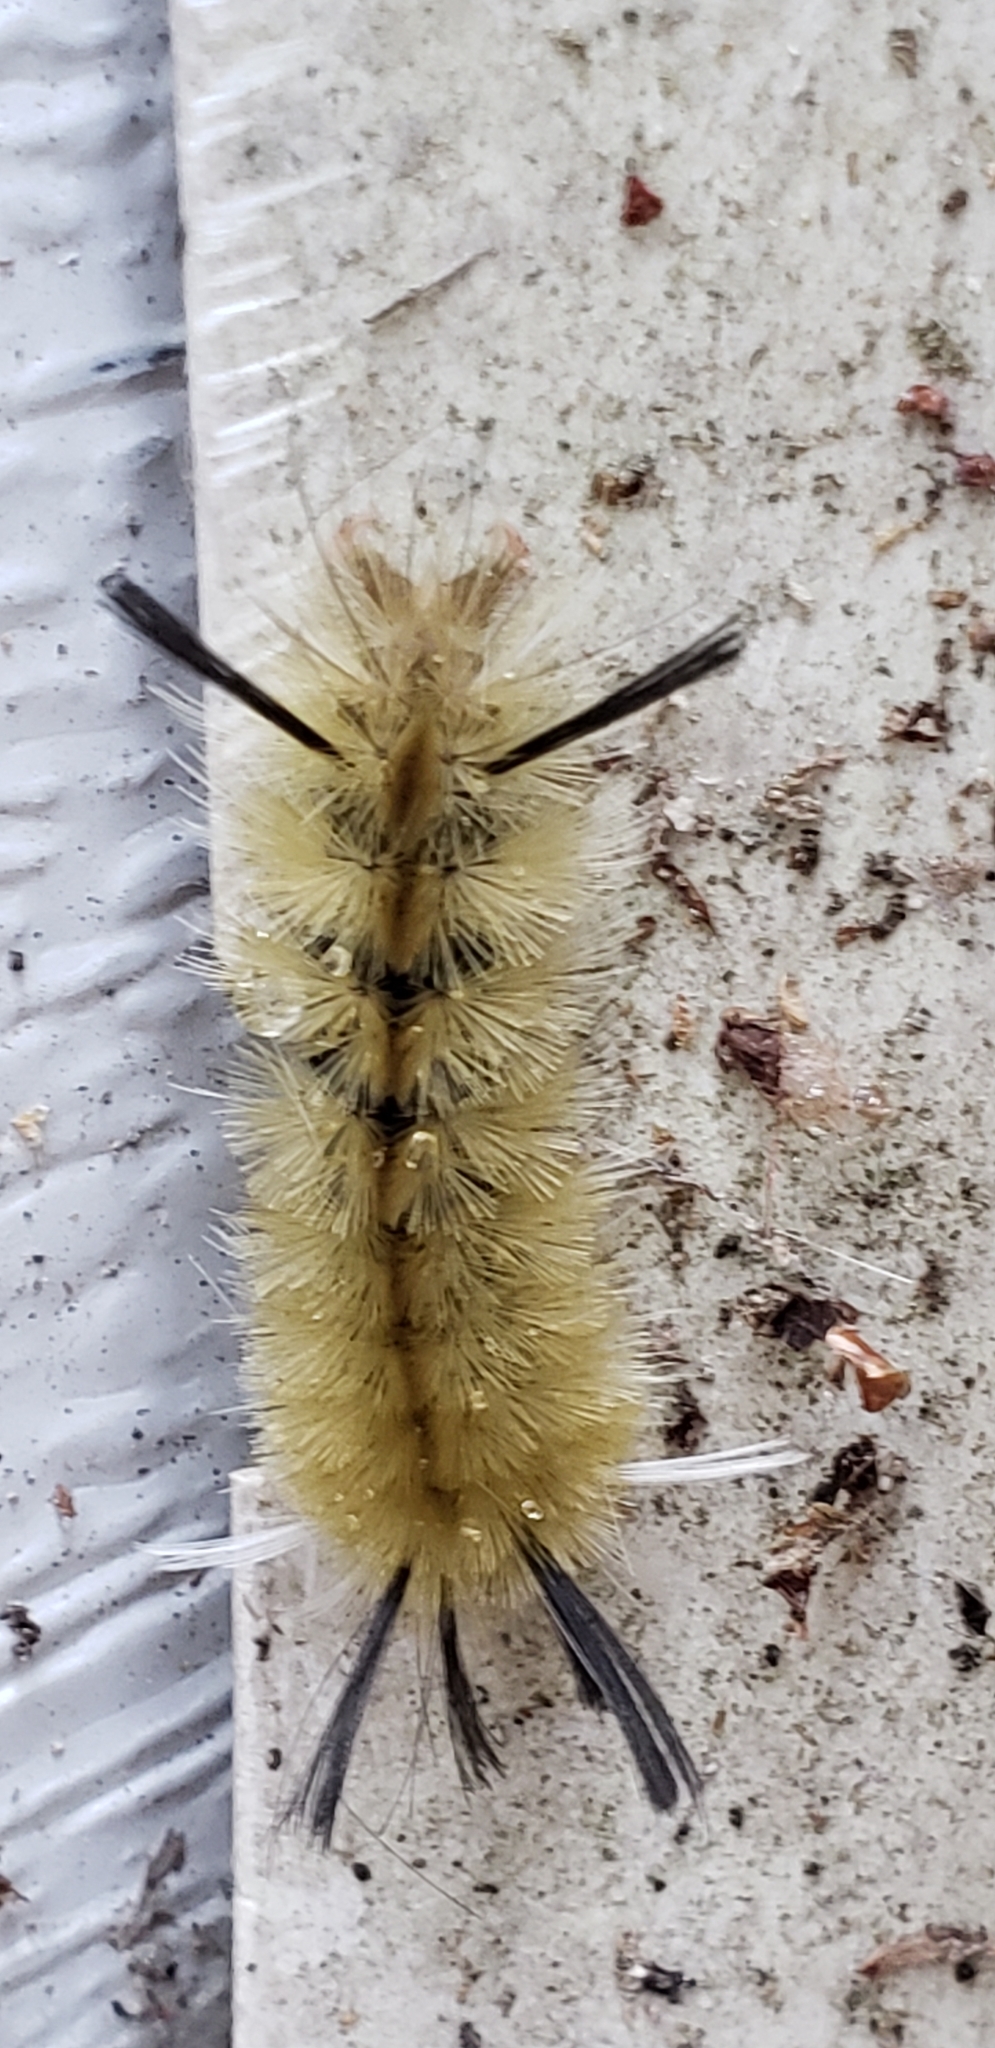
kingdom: Animalia
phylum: Arthropoda
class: Insecta
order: Lepidoptera
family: Erebidae
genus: Halysidota
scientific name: Halysidota tessellaris
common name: Banded tussock moth
